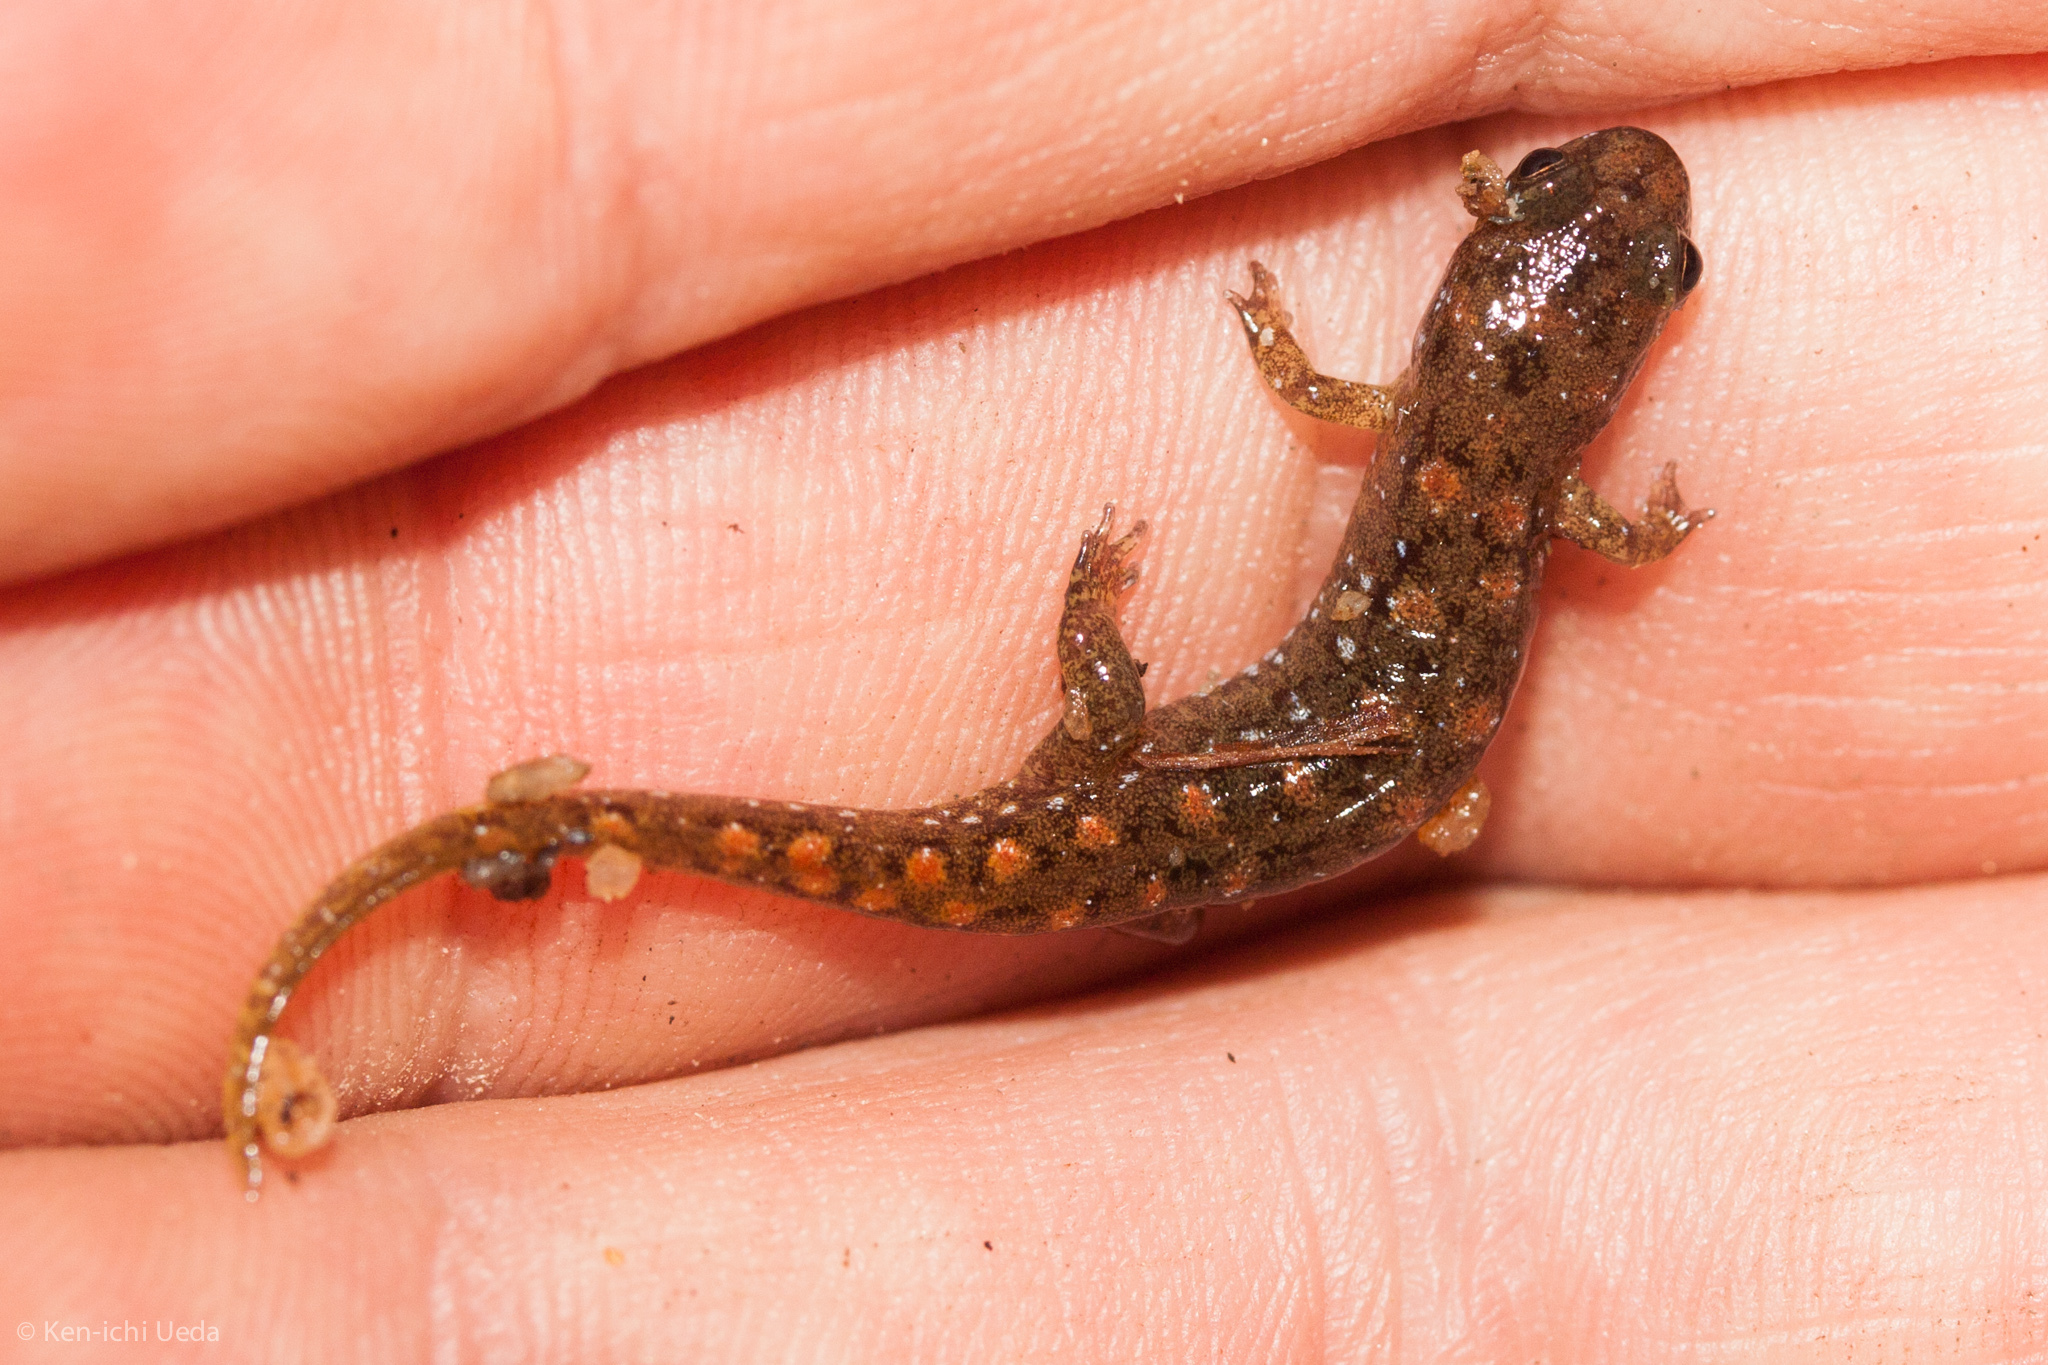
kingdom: Animalia
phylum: Chordata
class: Amphibia
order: Caudata
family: Plethodontidae
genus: Desmognathus
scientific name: Desmognathus monticola
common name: Seal salamander
